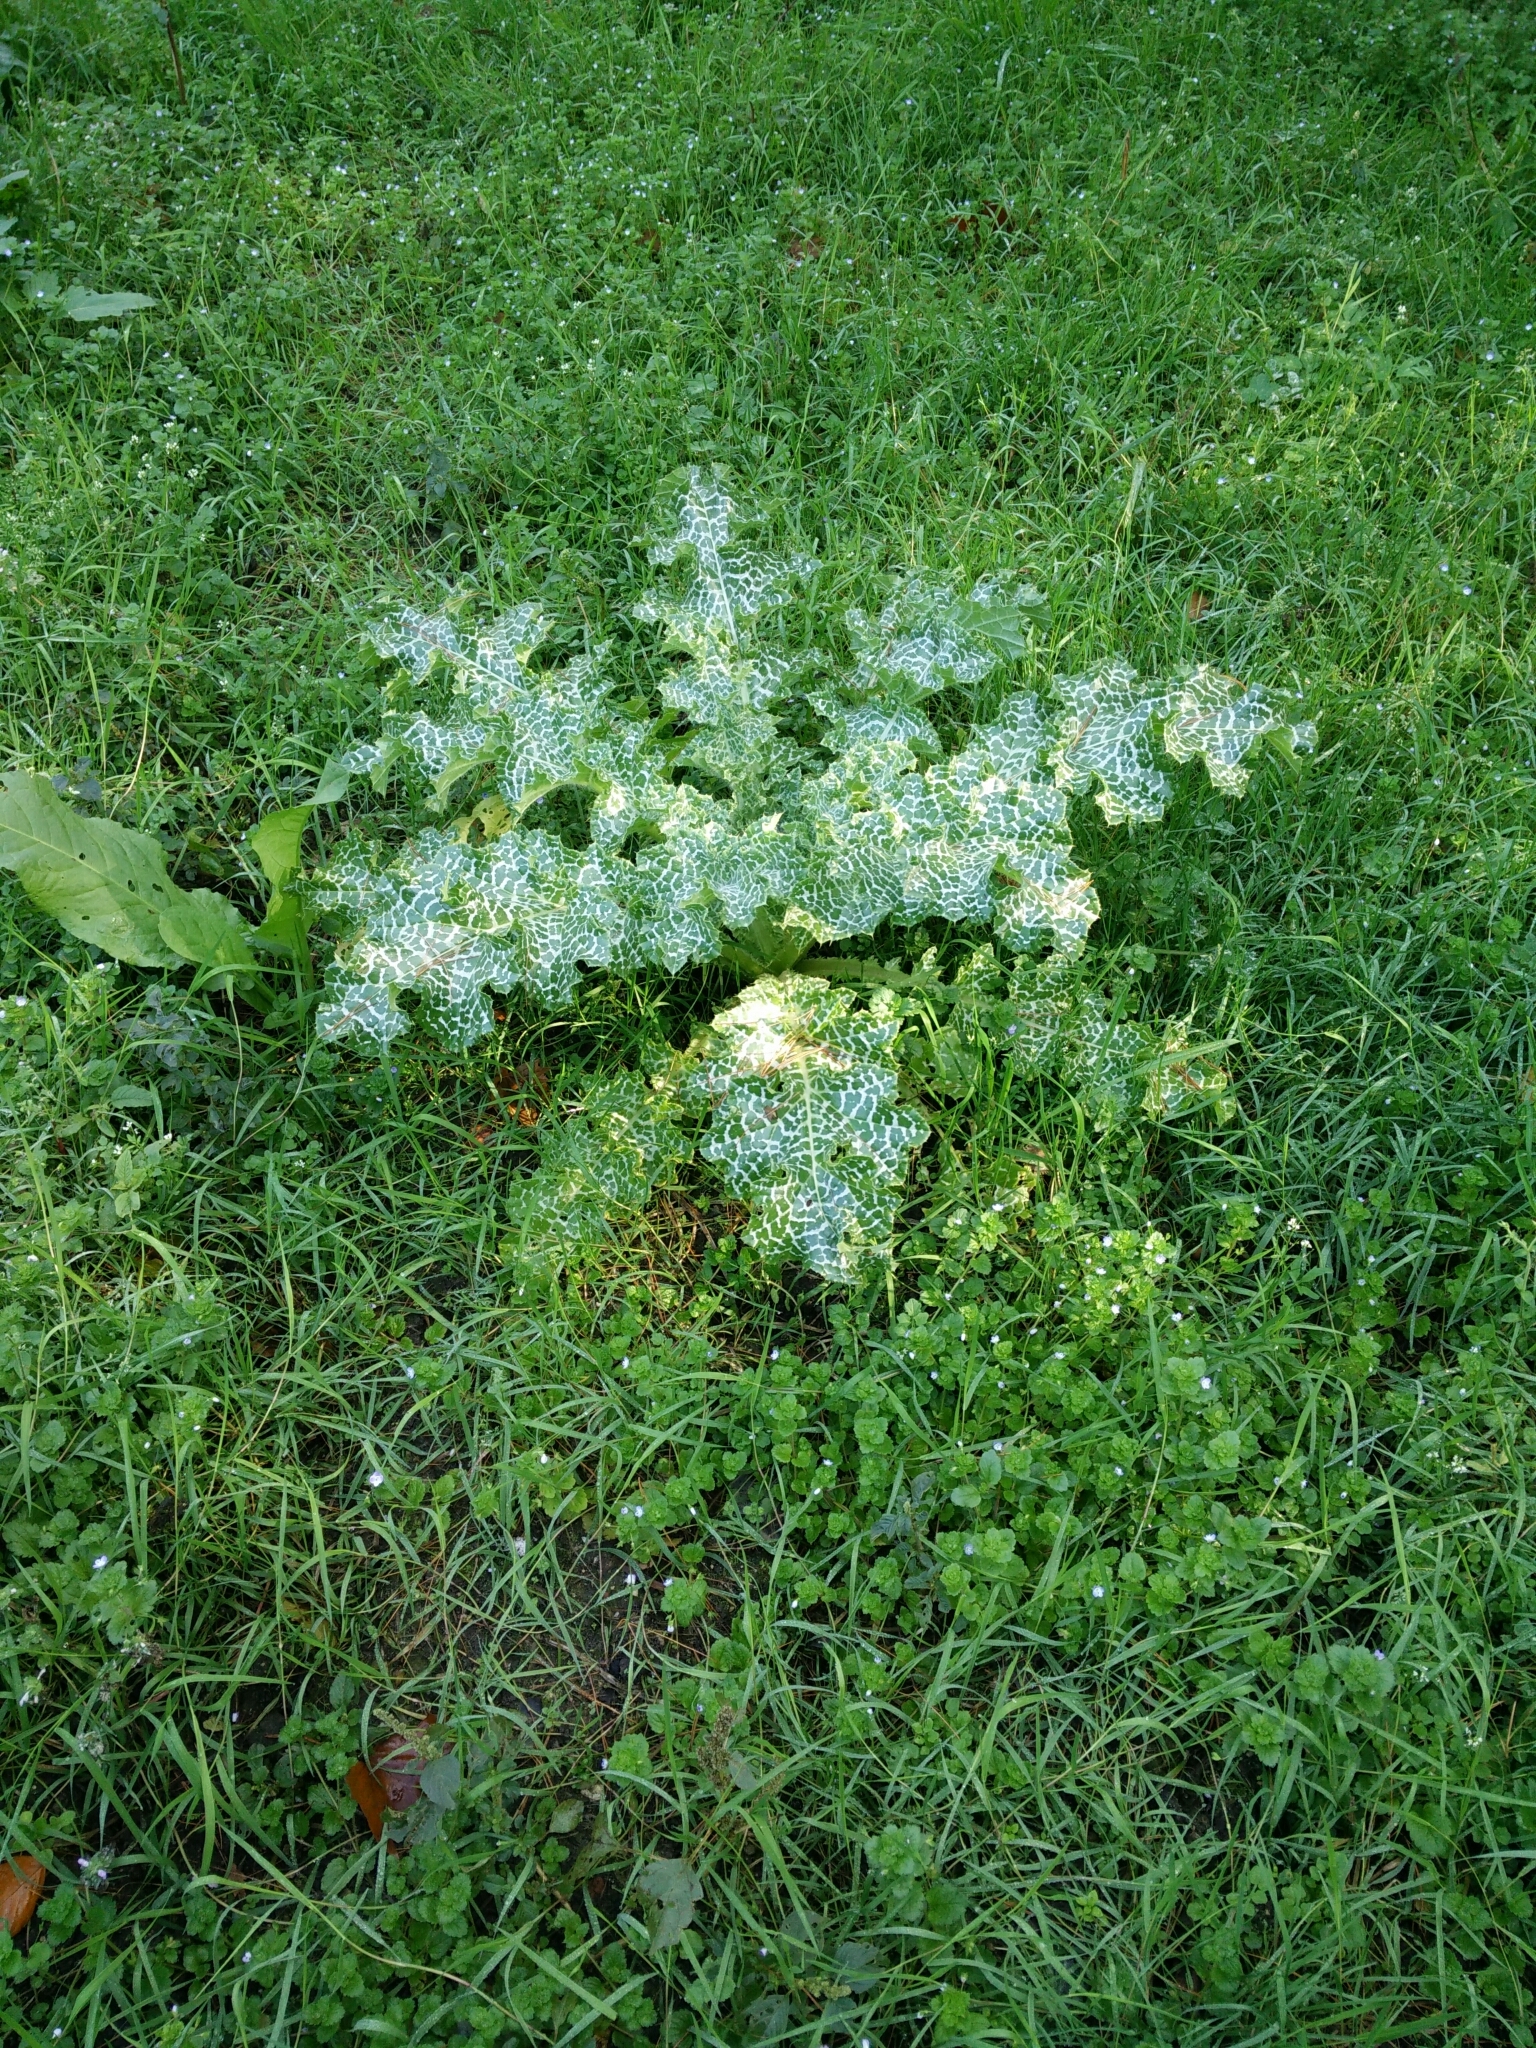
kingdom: Plantae
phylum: Tracheophyta
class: Magnoliopsida
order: Asterales
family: Asteraceae
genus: Silybum
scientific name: Silybum marianum
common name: Milk thistle
